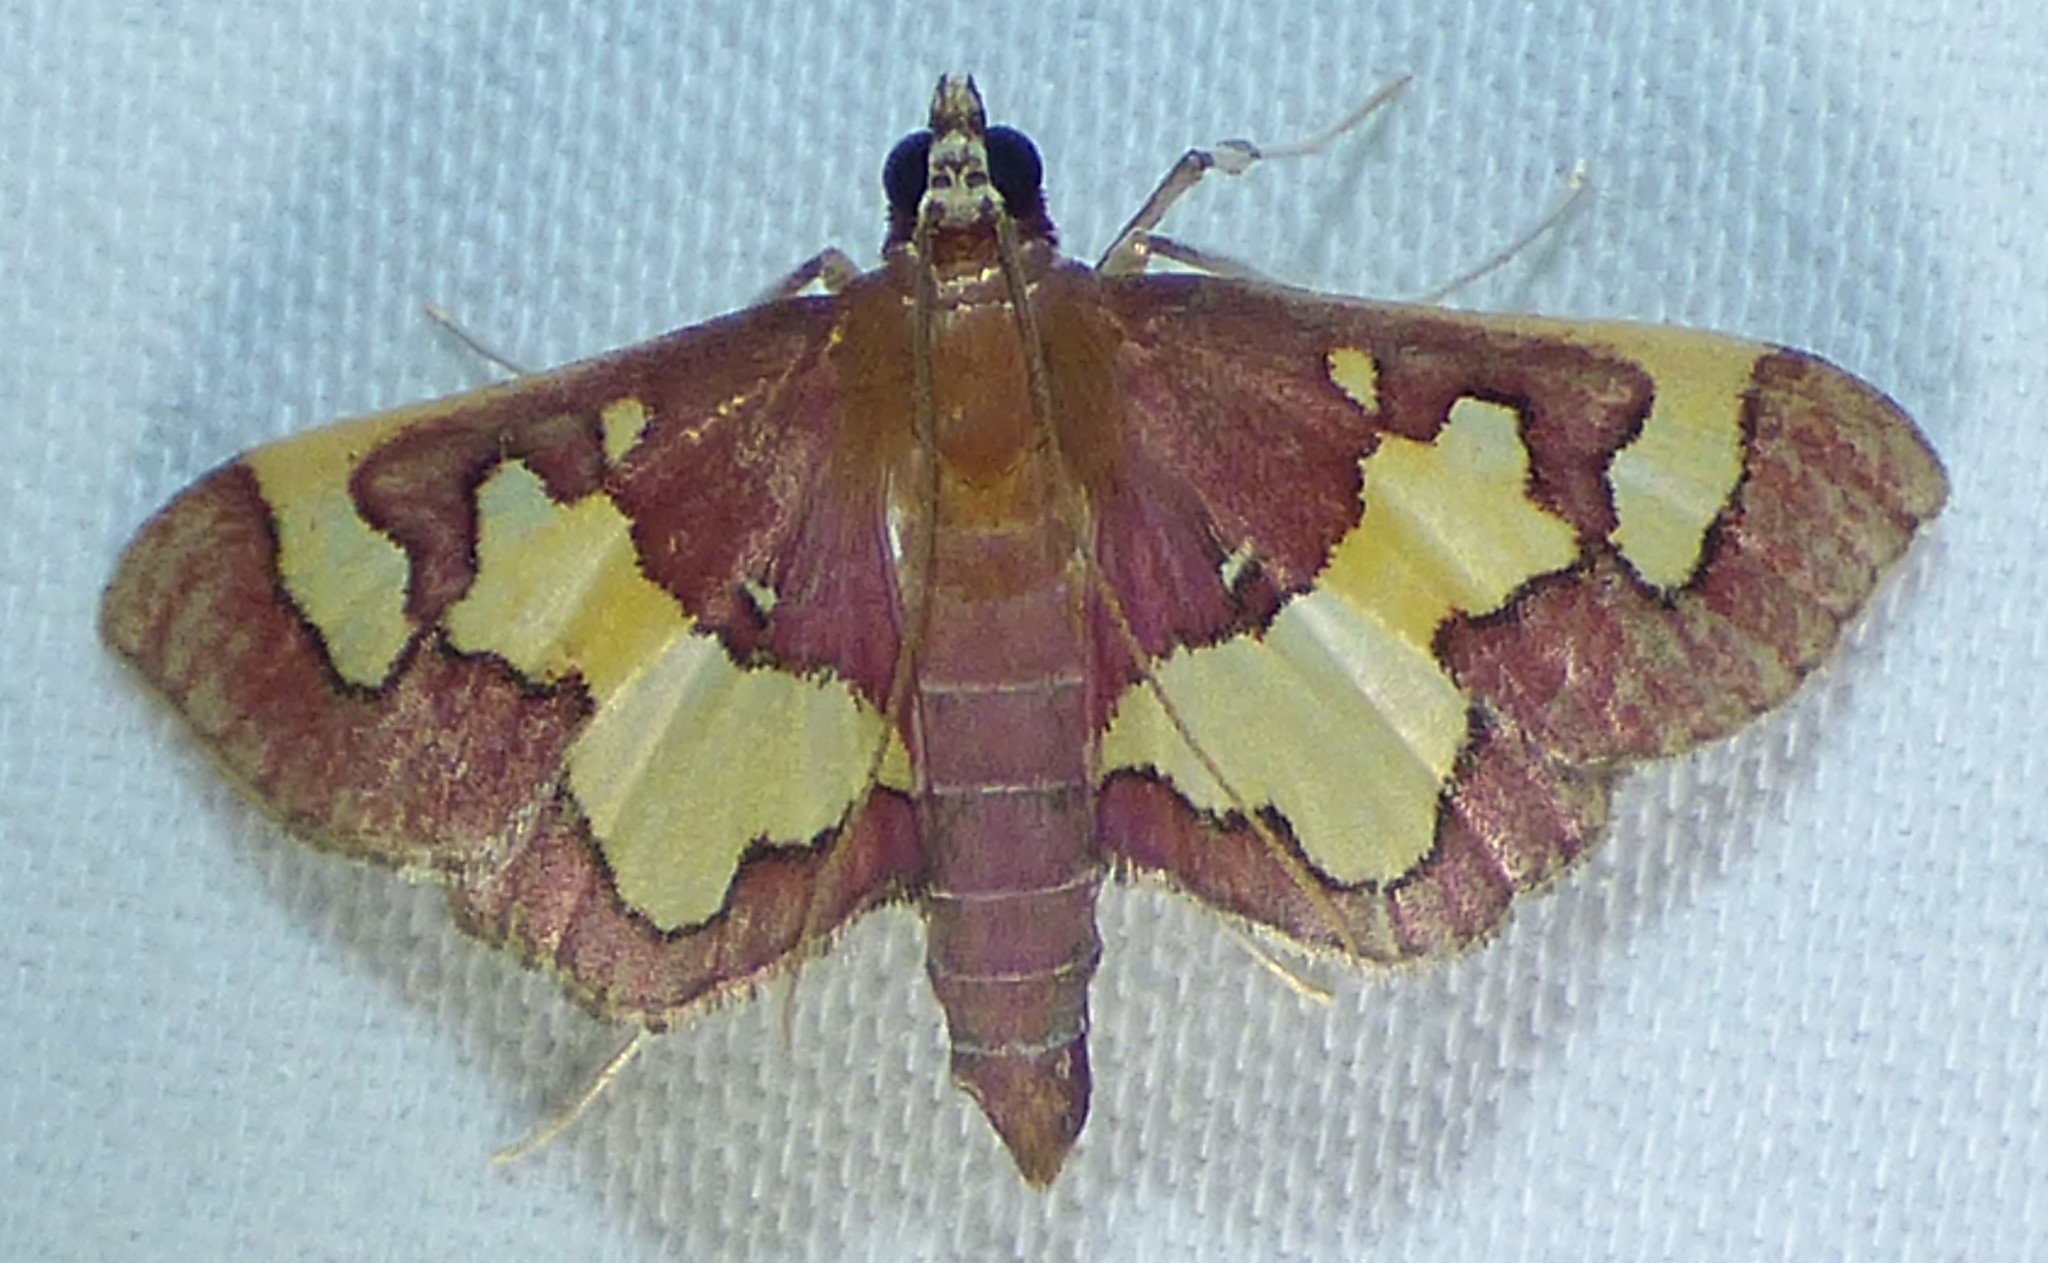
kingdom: Animalia
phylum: Arthropoda
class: Insecta
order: Lepidoptera
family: Crambidae
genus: Colomychus
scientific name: Colomychus talis
